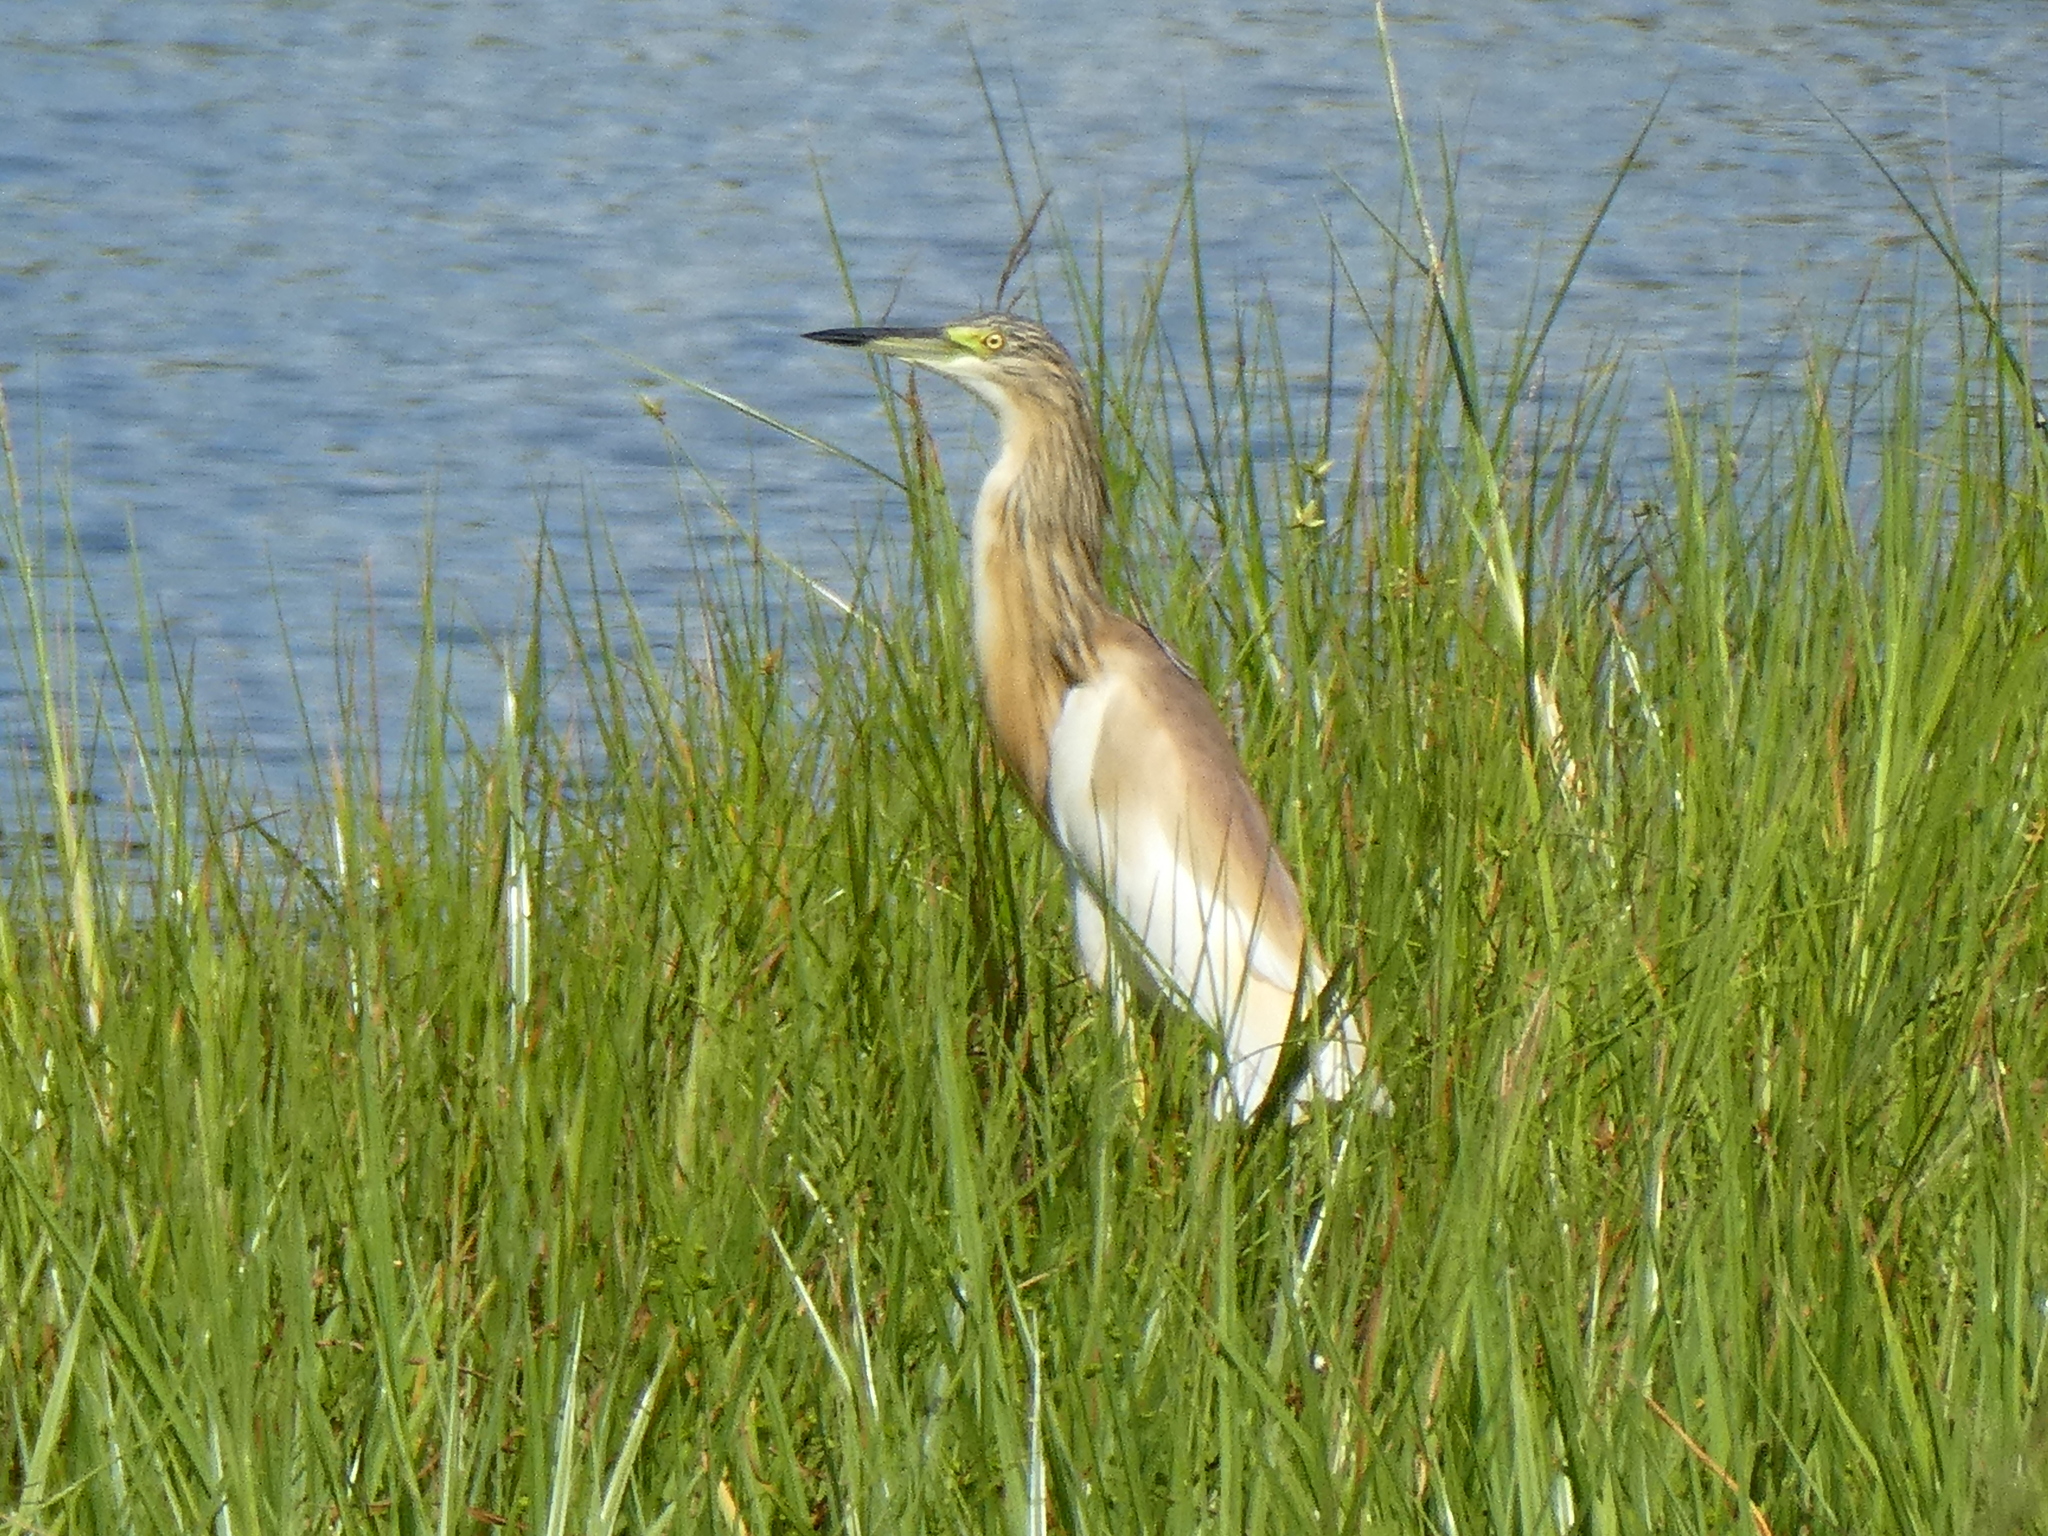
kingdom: Animalia
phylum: Chordata
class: Aves
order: Pelecaniformes
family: Ardeidae
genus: Ardeola
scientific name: Ardeola ralloides
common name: Squacco heron
